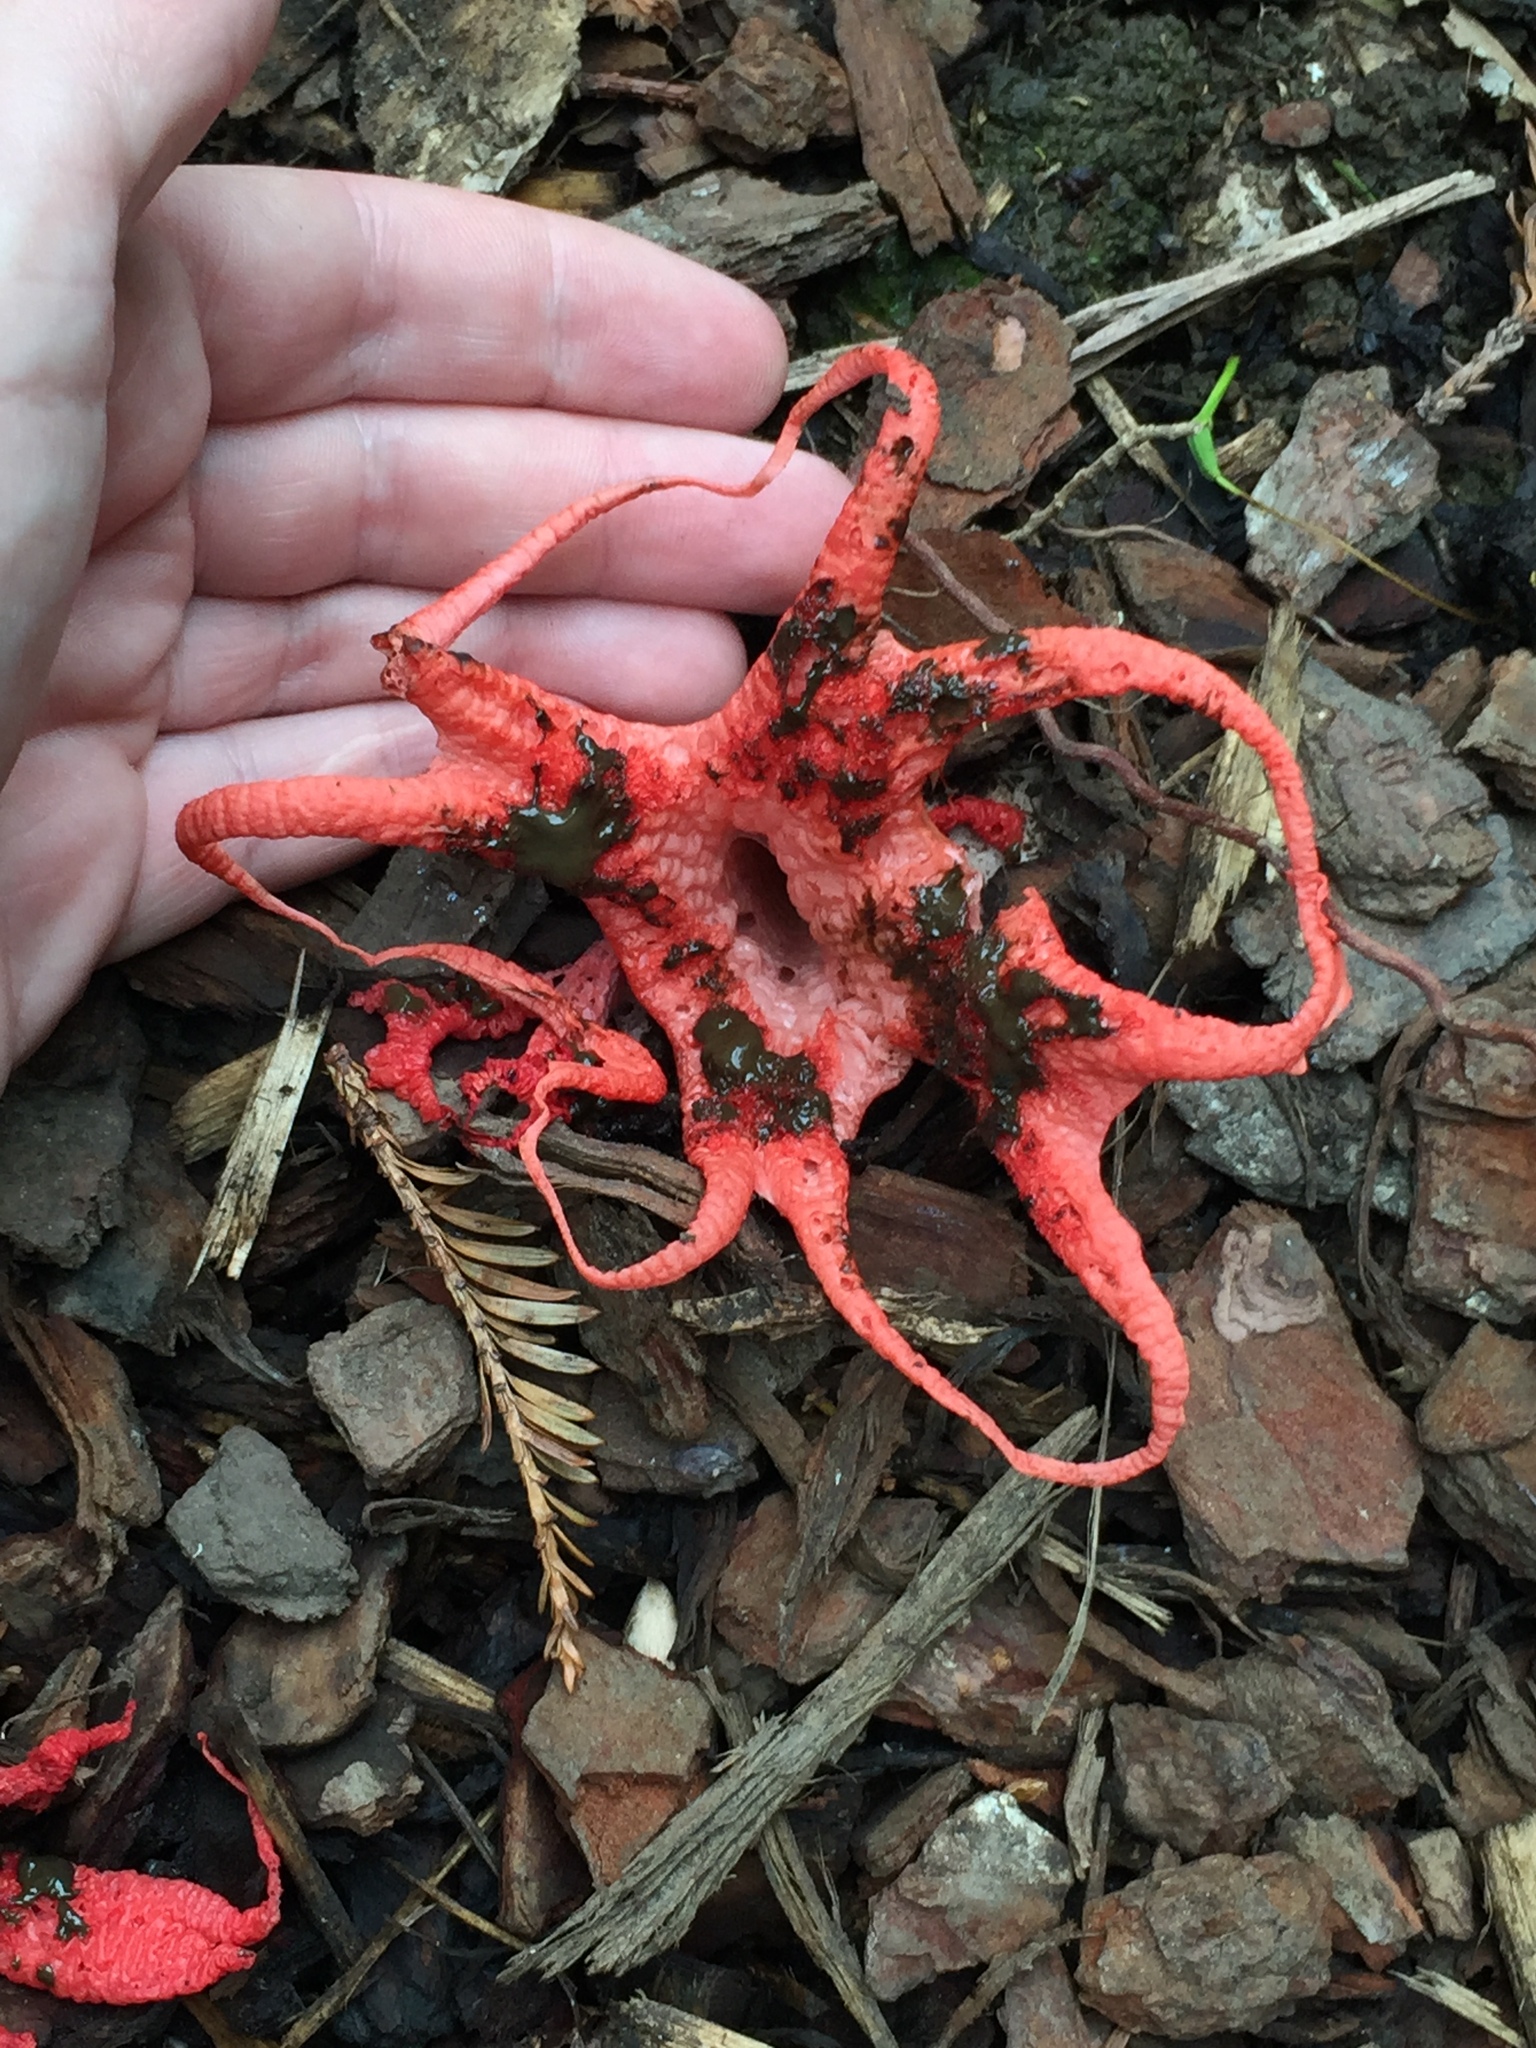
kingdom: Fungi
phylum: Basidiomycota
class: Agaricomycetes
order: Phallales
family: Phallaceae
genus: Clathrus
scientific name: Clathrus archeri
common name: Devil's fingers
